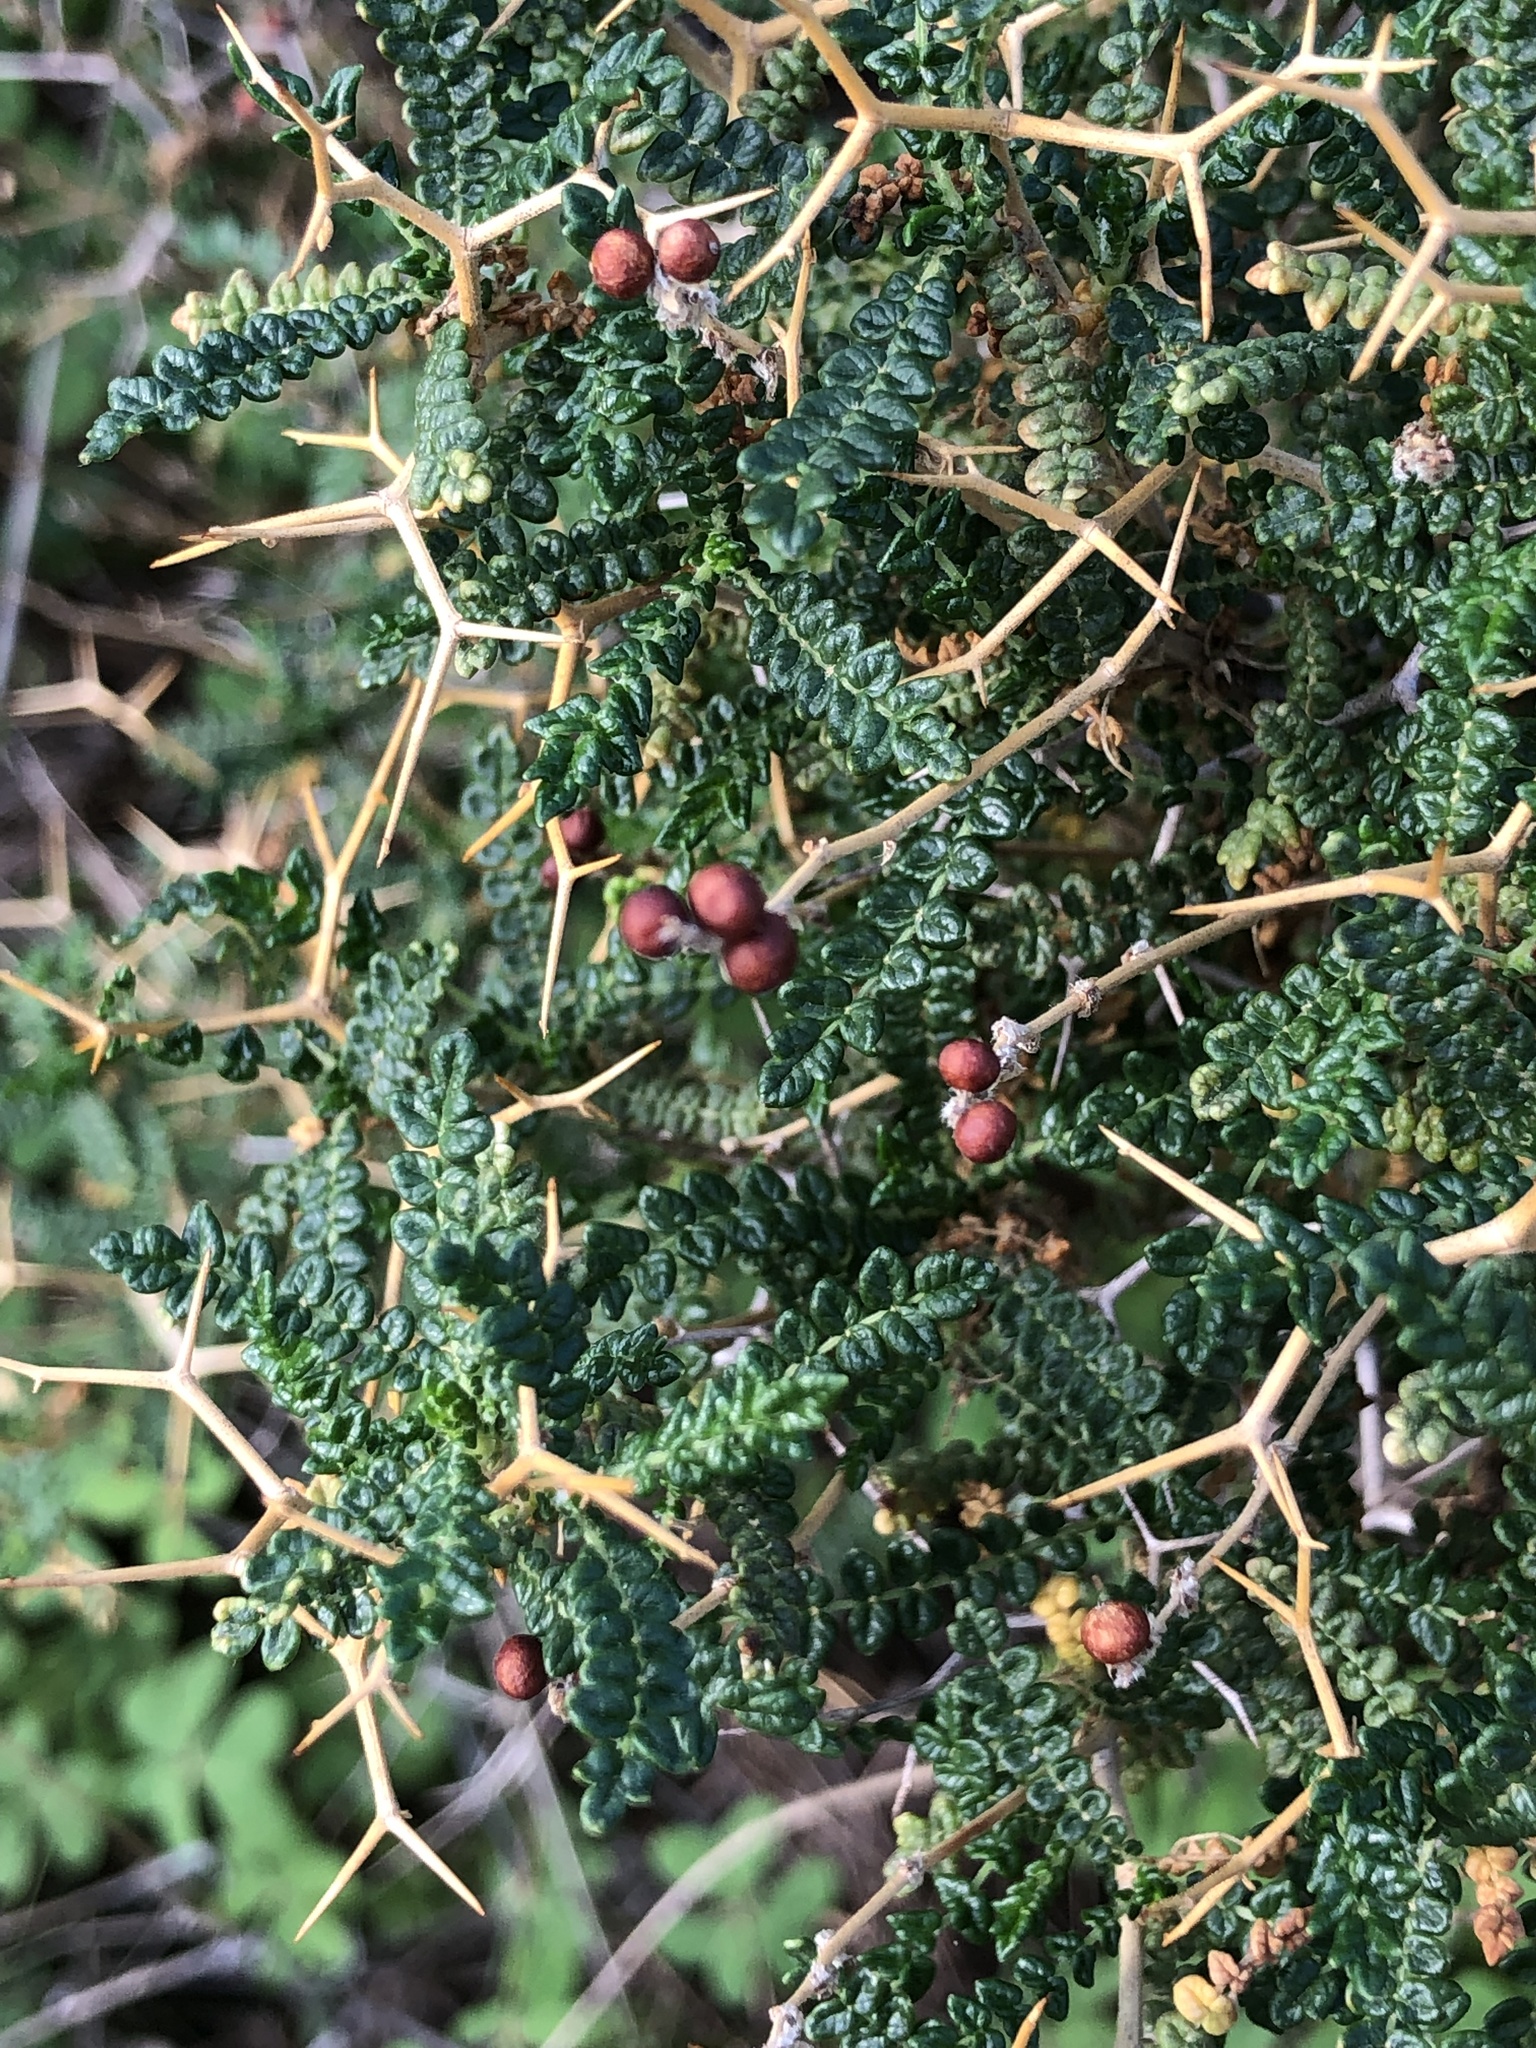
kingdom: Plantae
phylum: Tracheophyta
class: Magnoliopsida
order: Rosales
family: Rosaceae
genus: Sarcopoterium
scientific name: Sarcopoterium spinosum
